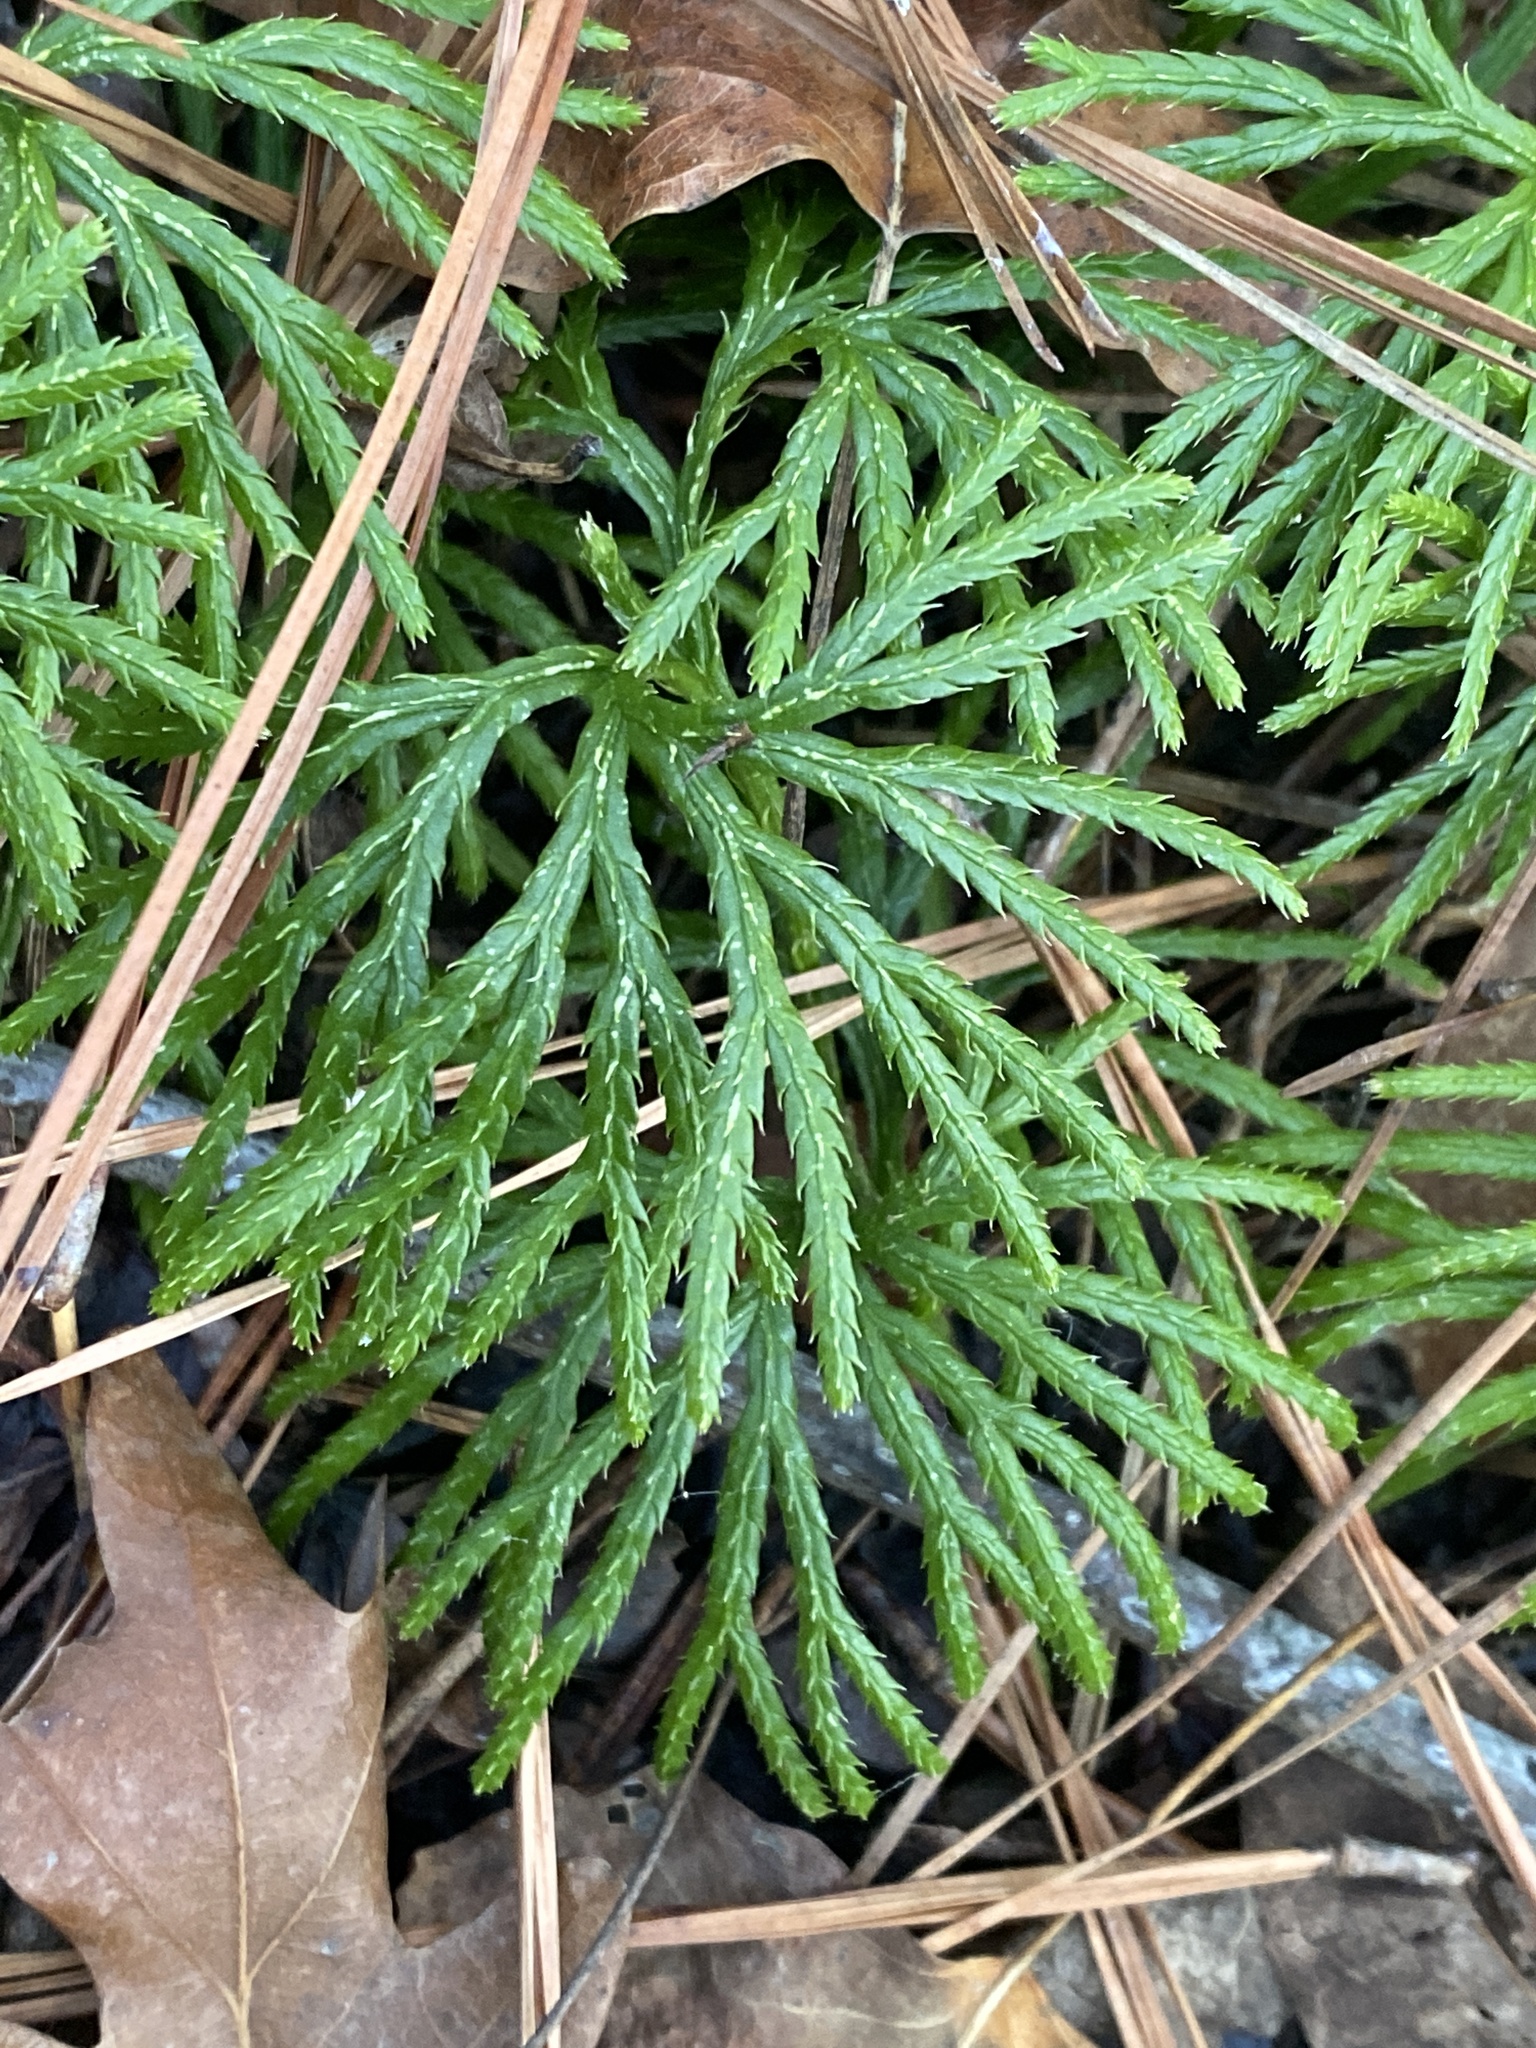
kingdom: Plantae
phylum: Tracheophyta
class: Lycopodiopsida
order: Lycopodiales
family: Lycopodiaceae
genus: Diphasiastrum
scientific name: Diphasiastrum digitatum
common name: Southern running-pine
